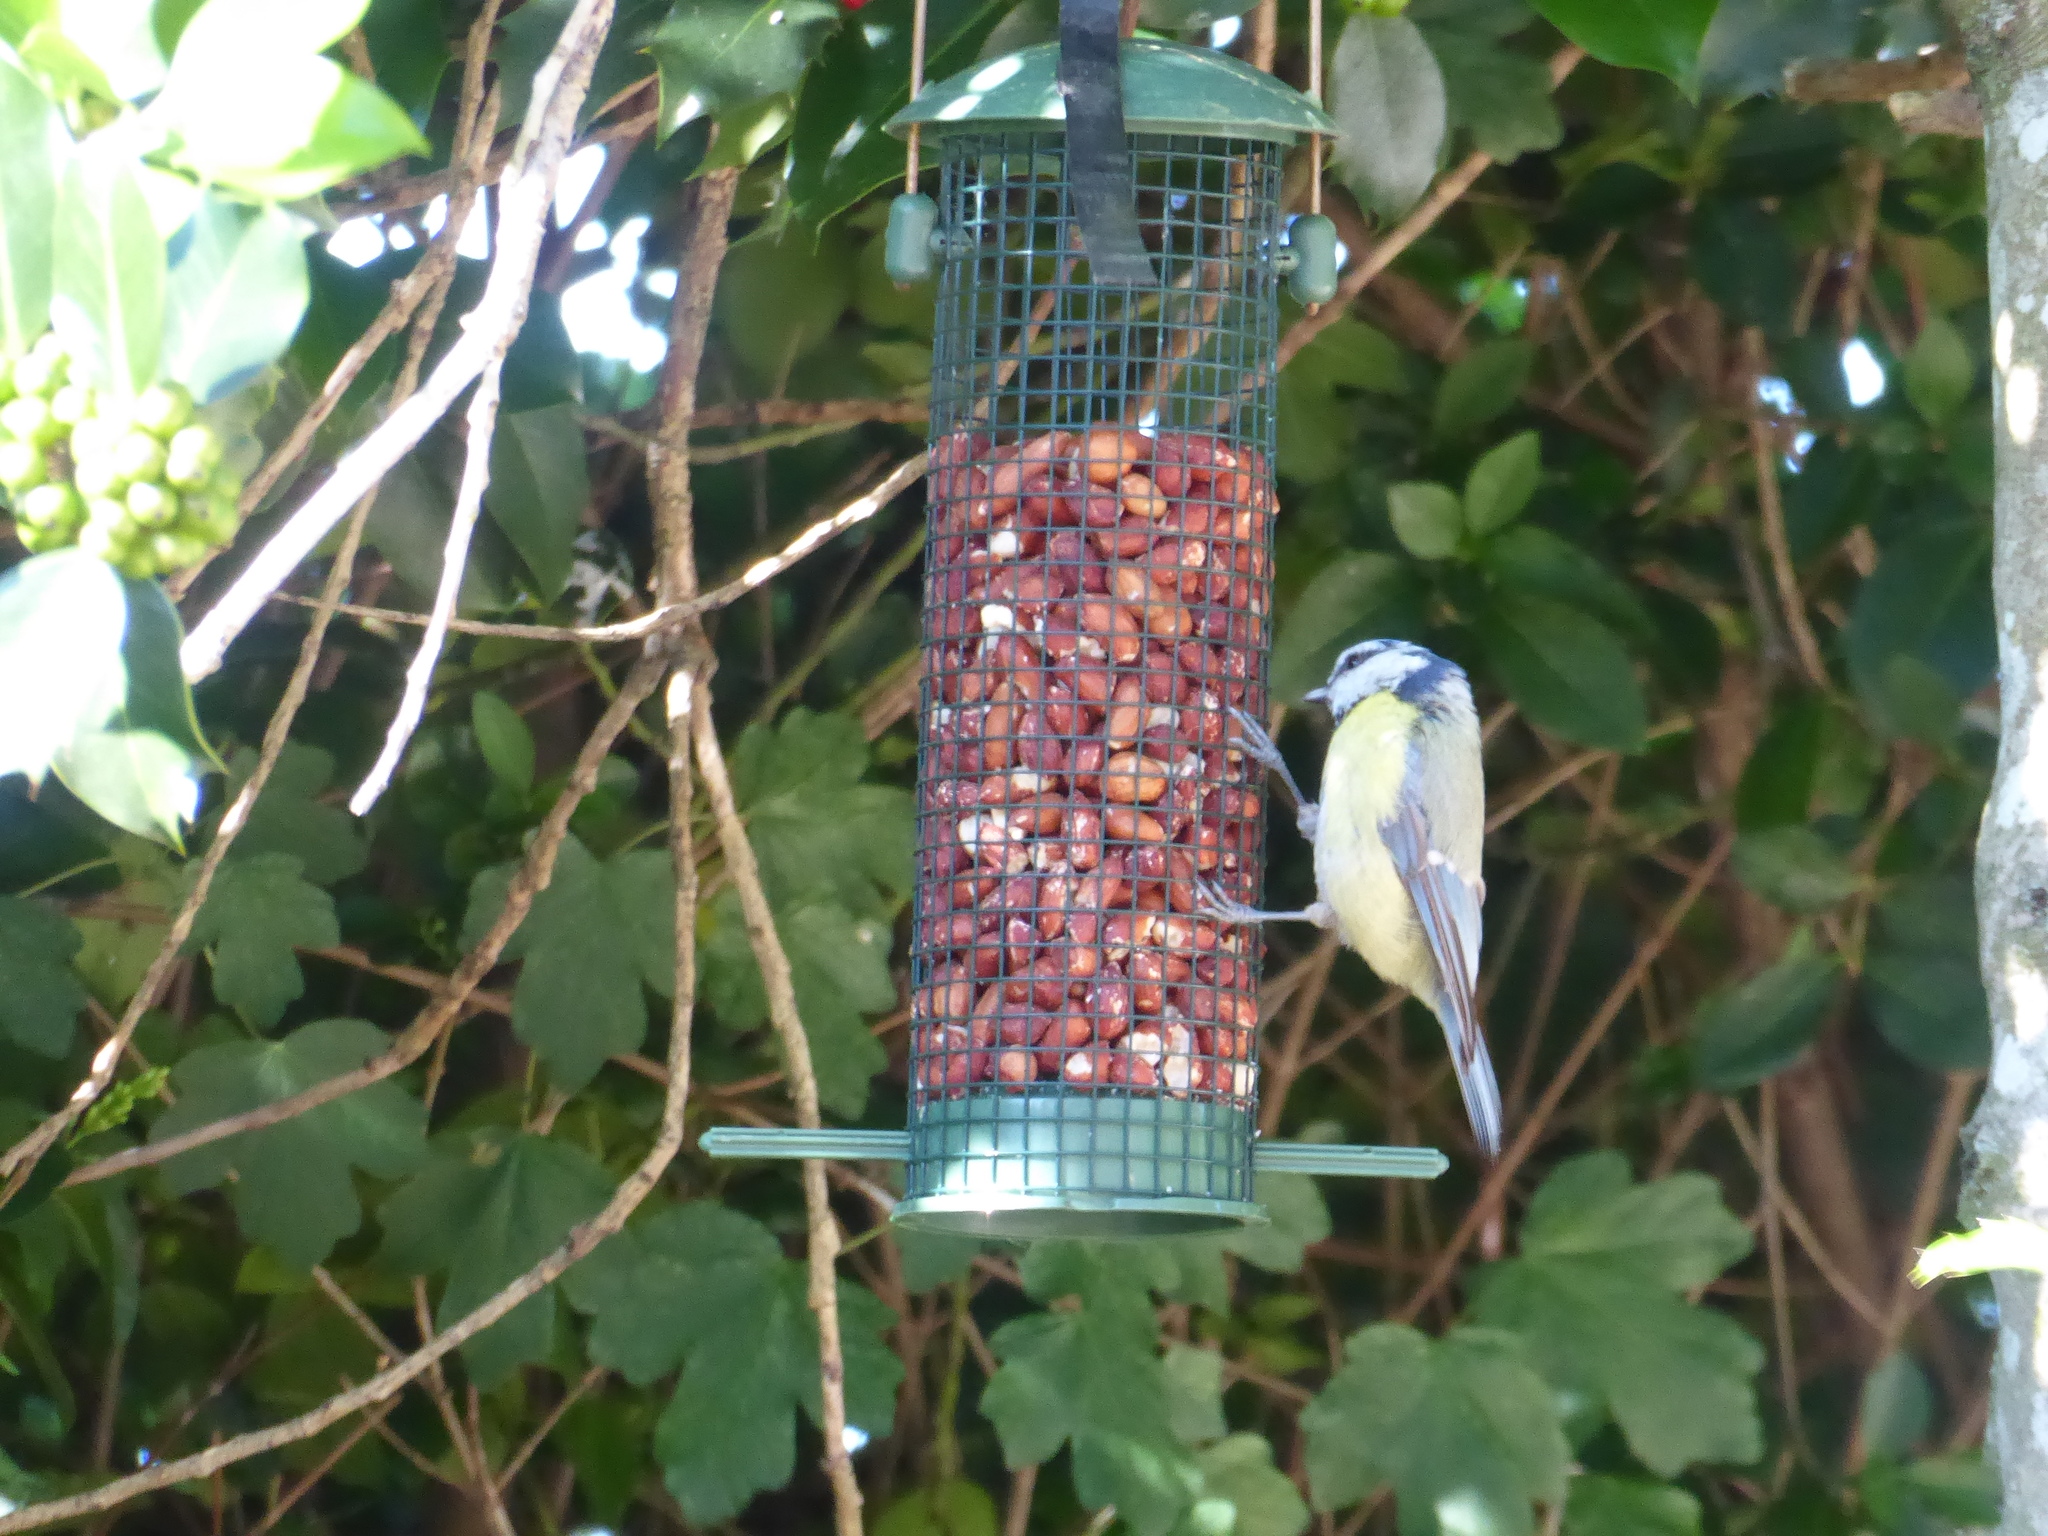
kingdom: Animalia
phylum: Chordata
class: Aves
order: Passeriformes
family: Paridae
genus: Cyanistes
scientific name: Cyanistes caeruleus
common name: Eurasian blue tit
